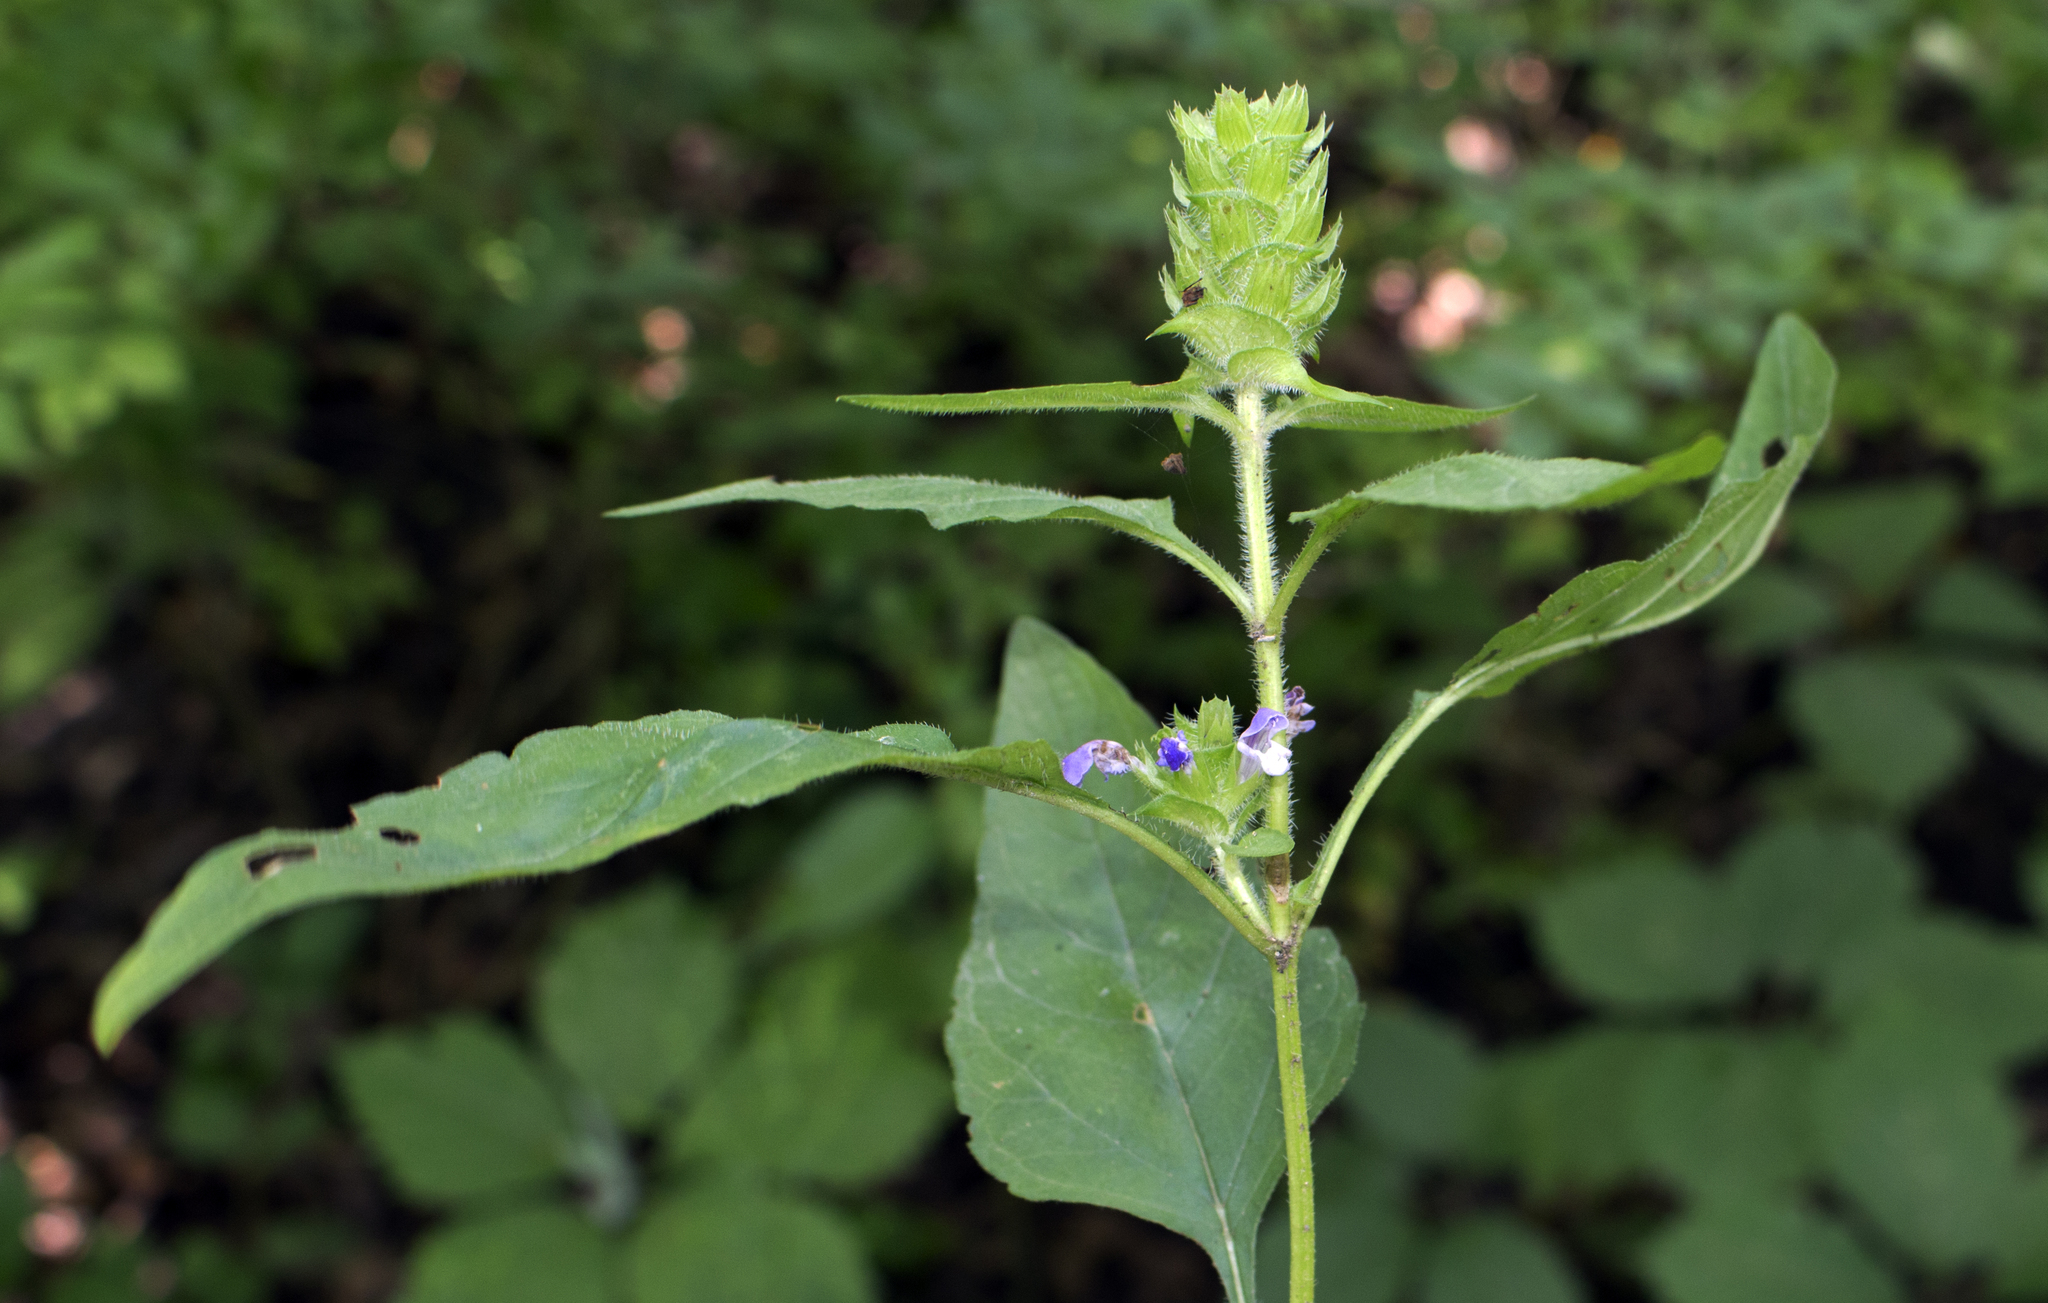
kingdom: Plantae
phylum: Tracheophyta
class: Magnoliopsida
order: Lamiales
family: Lamiaceae
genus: Prunella
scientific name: Prunella vulgaris
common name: Heal-all
